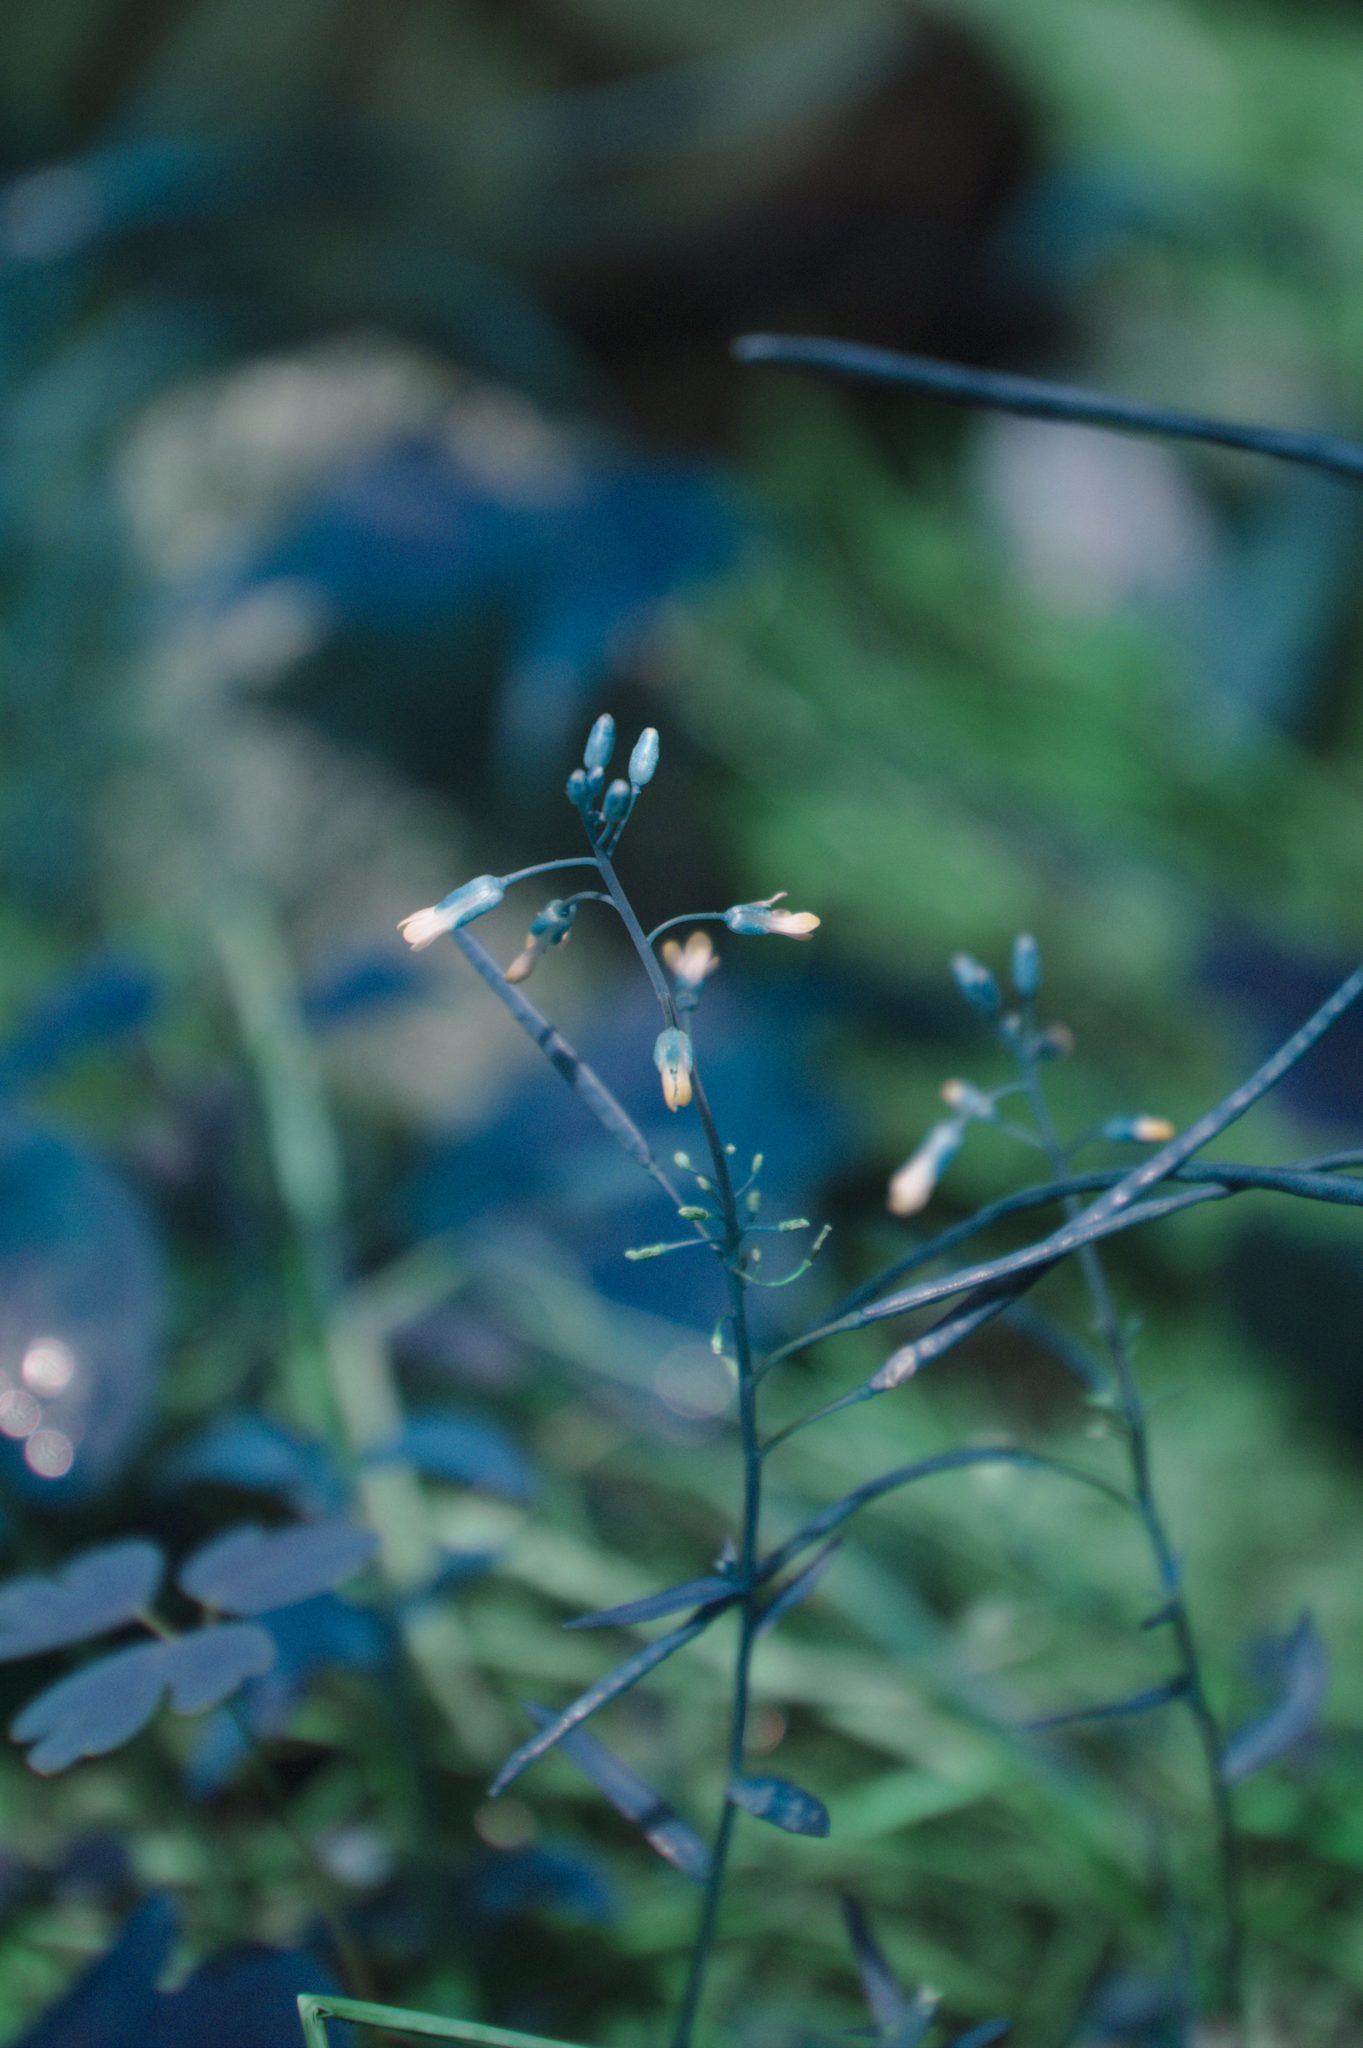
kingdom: Plantae
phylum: Tracheophyta
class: Magnoliopsida
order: Brassicales
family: Brassicaceae
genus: Boechera
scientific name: Boechera grahamii
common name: Graham's rockcress
